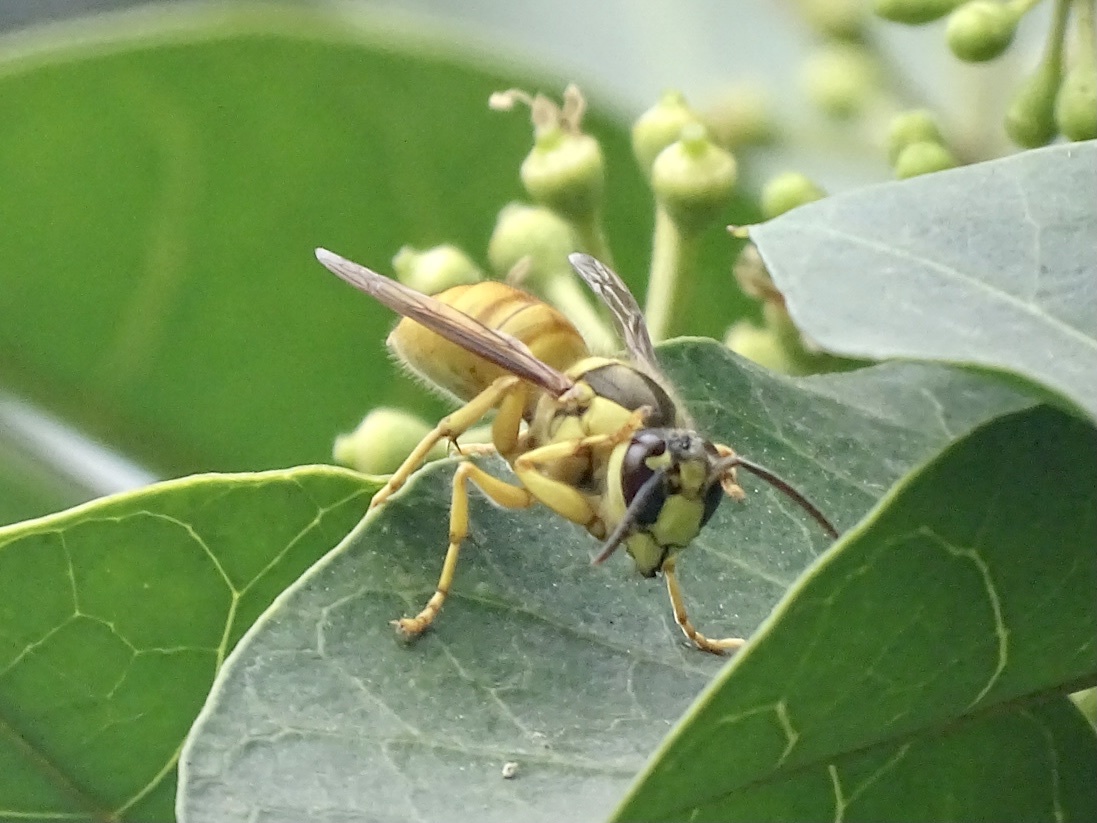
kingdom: Animalia
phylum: Arthropoda
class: Insecta
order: Hymenoptera
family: Vespidae
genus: Vespa
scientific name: Vespa bicolor
